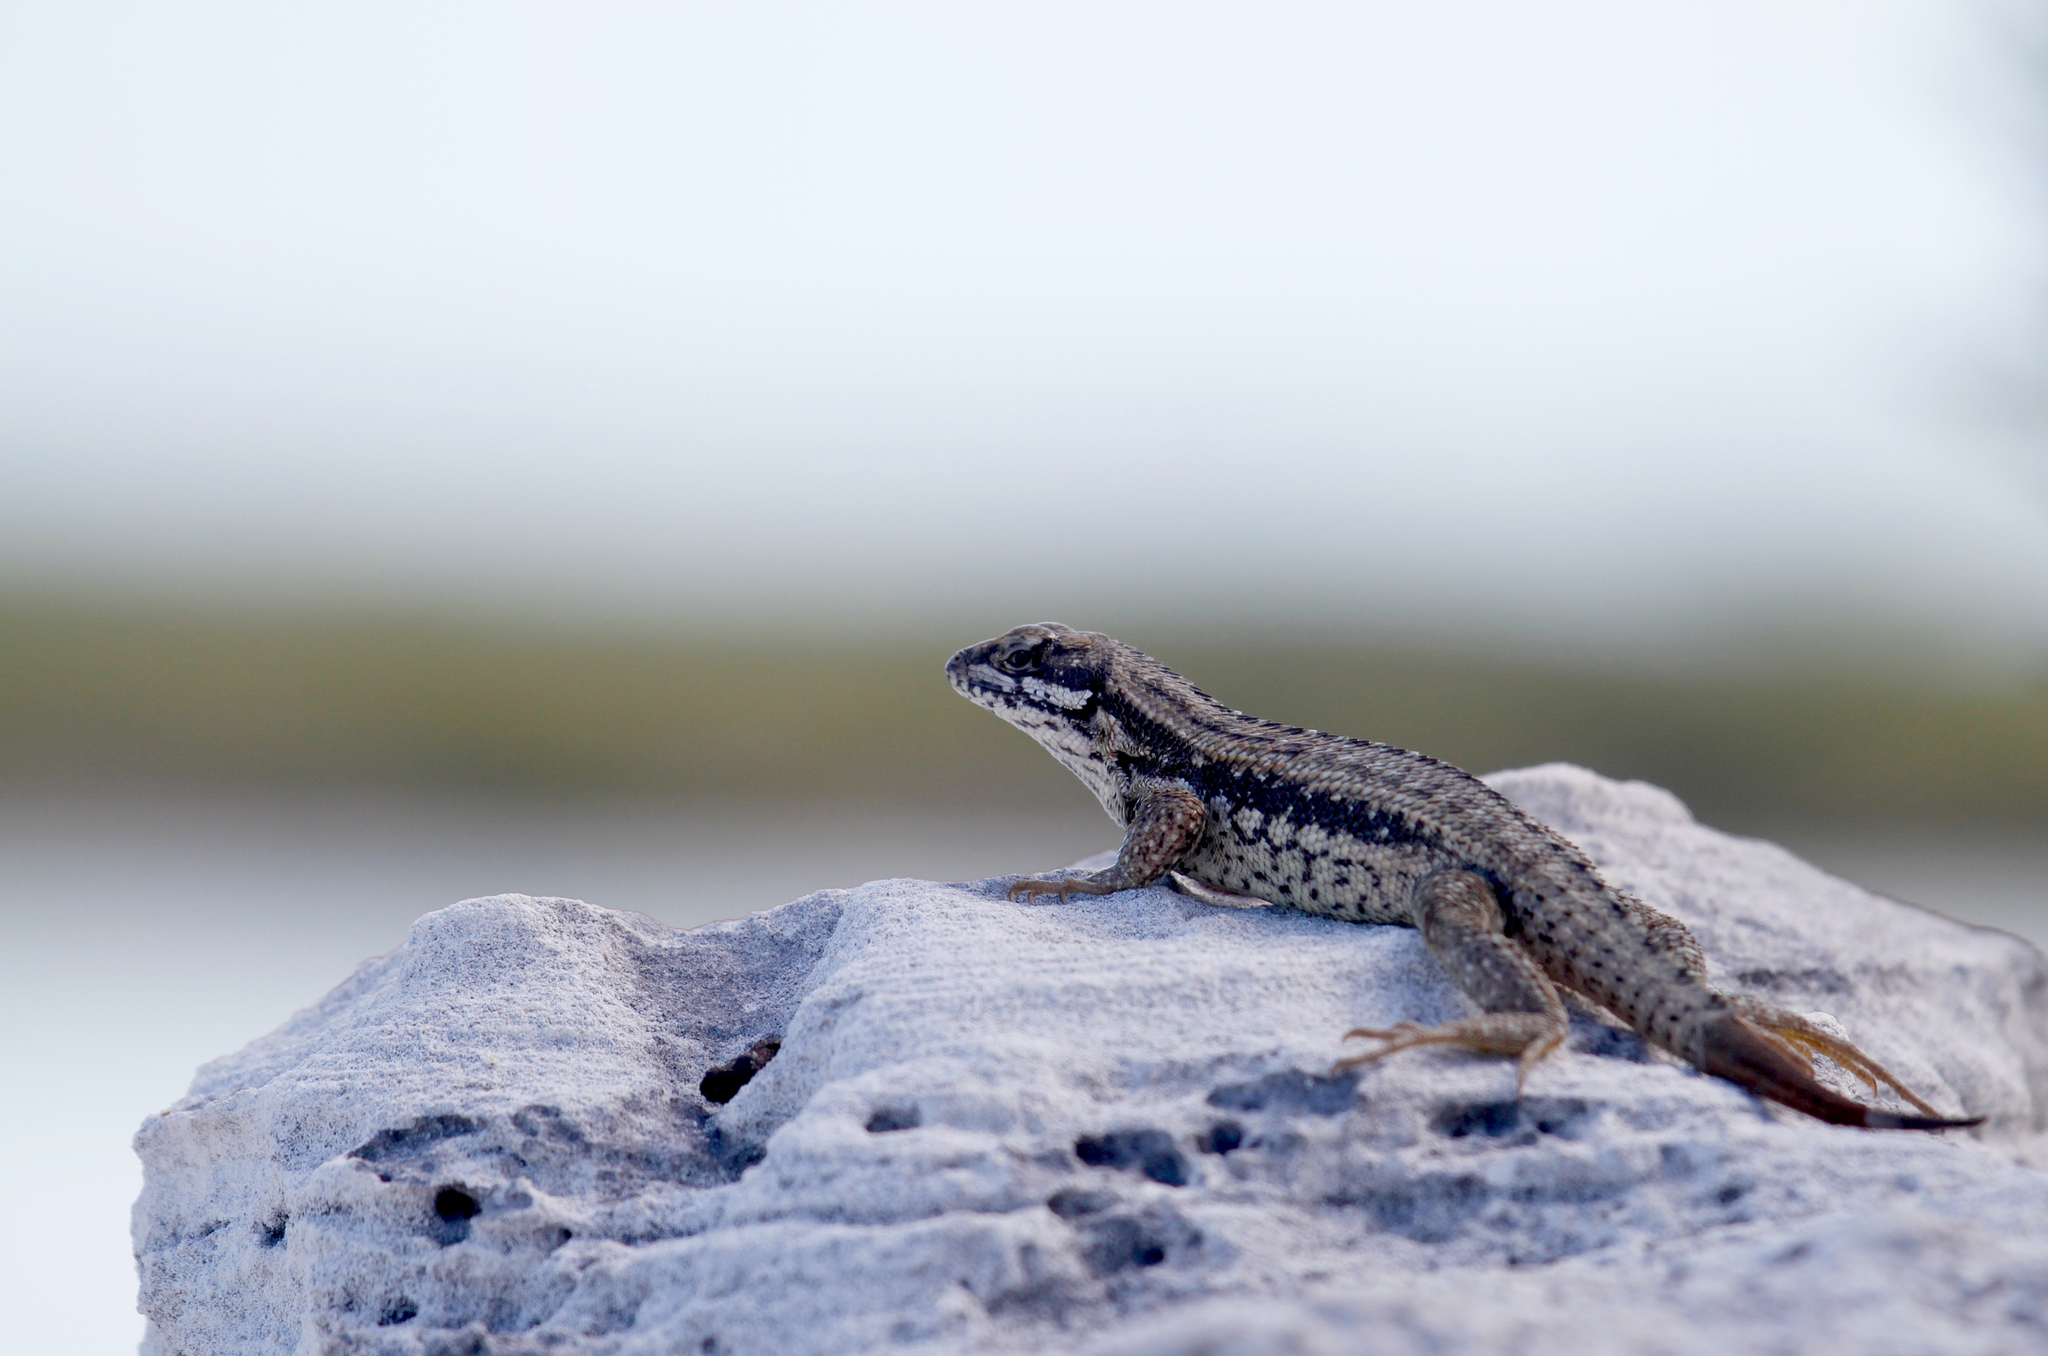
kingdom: Animalia
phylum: Chordata
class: Squamata
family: Leiocephalidae
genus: Leiocephalus
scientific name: Leiocephalus carinatus
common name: Northern curly-tailed lizard
